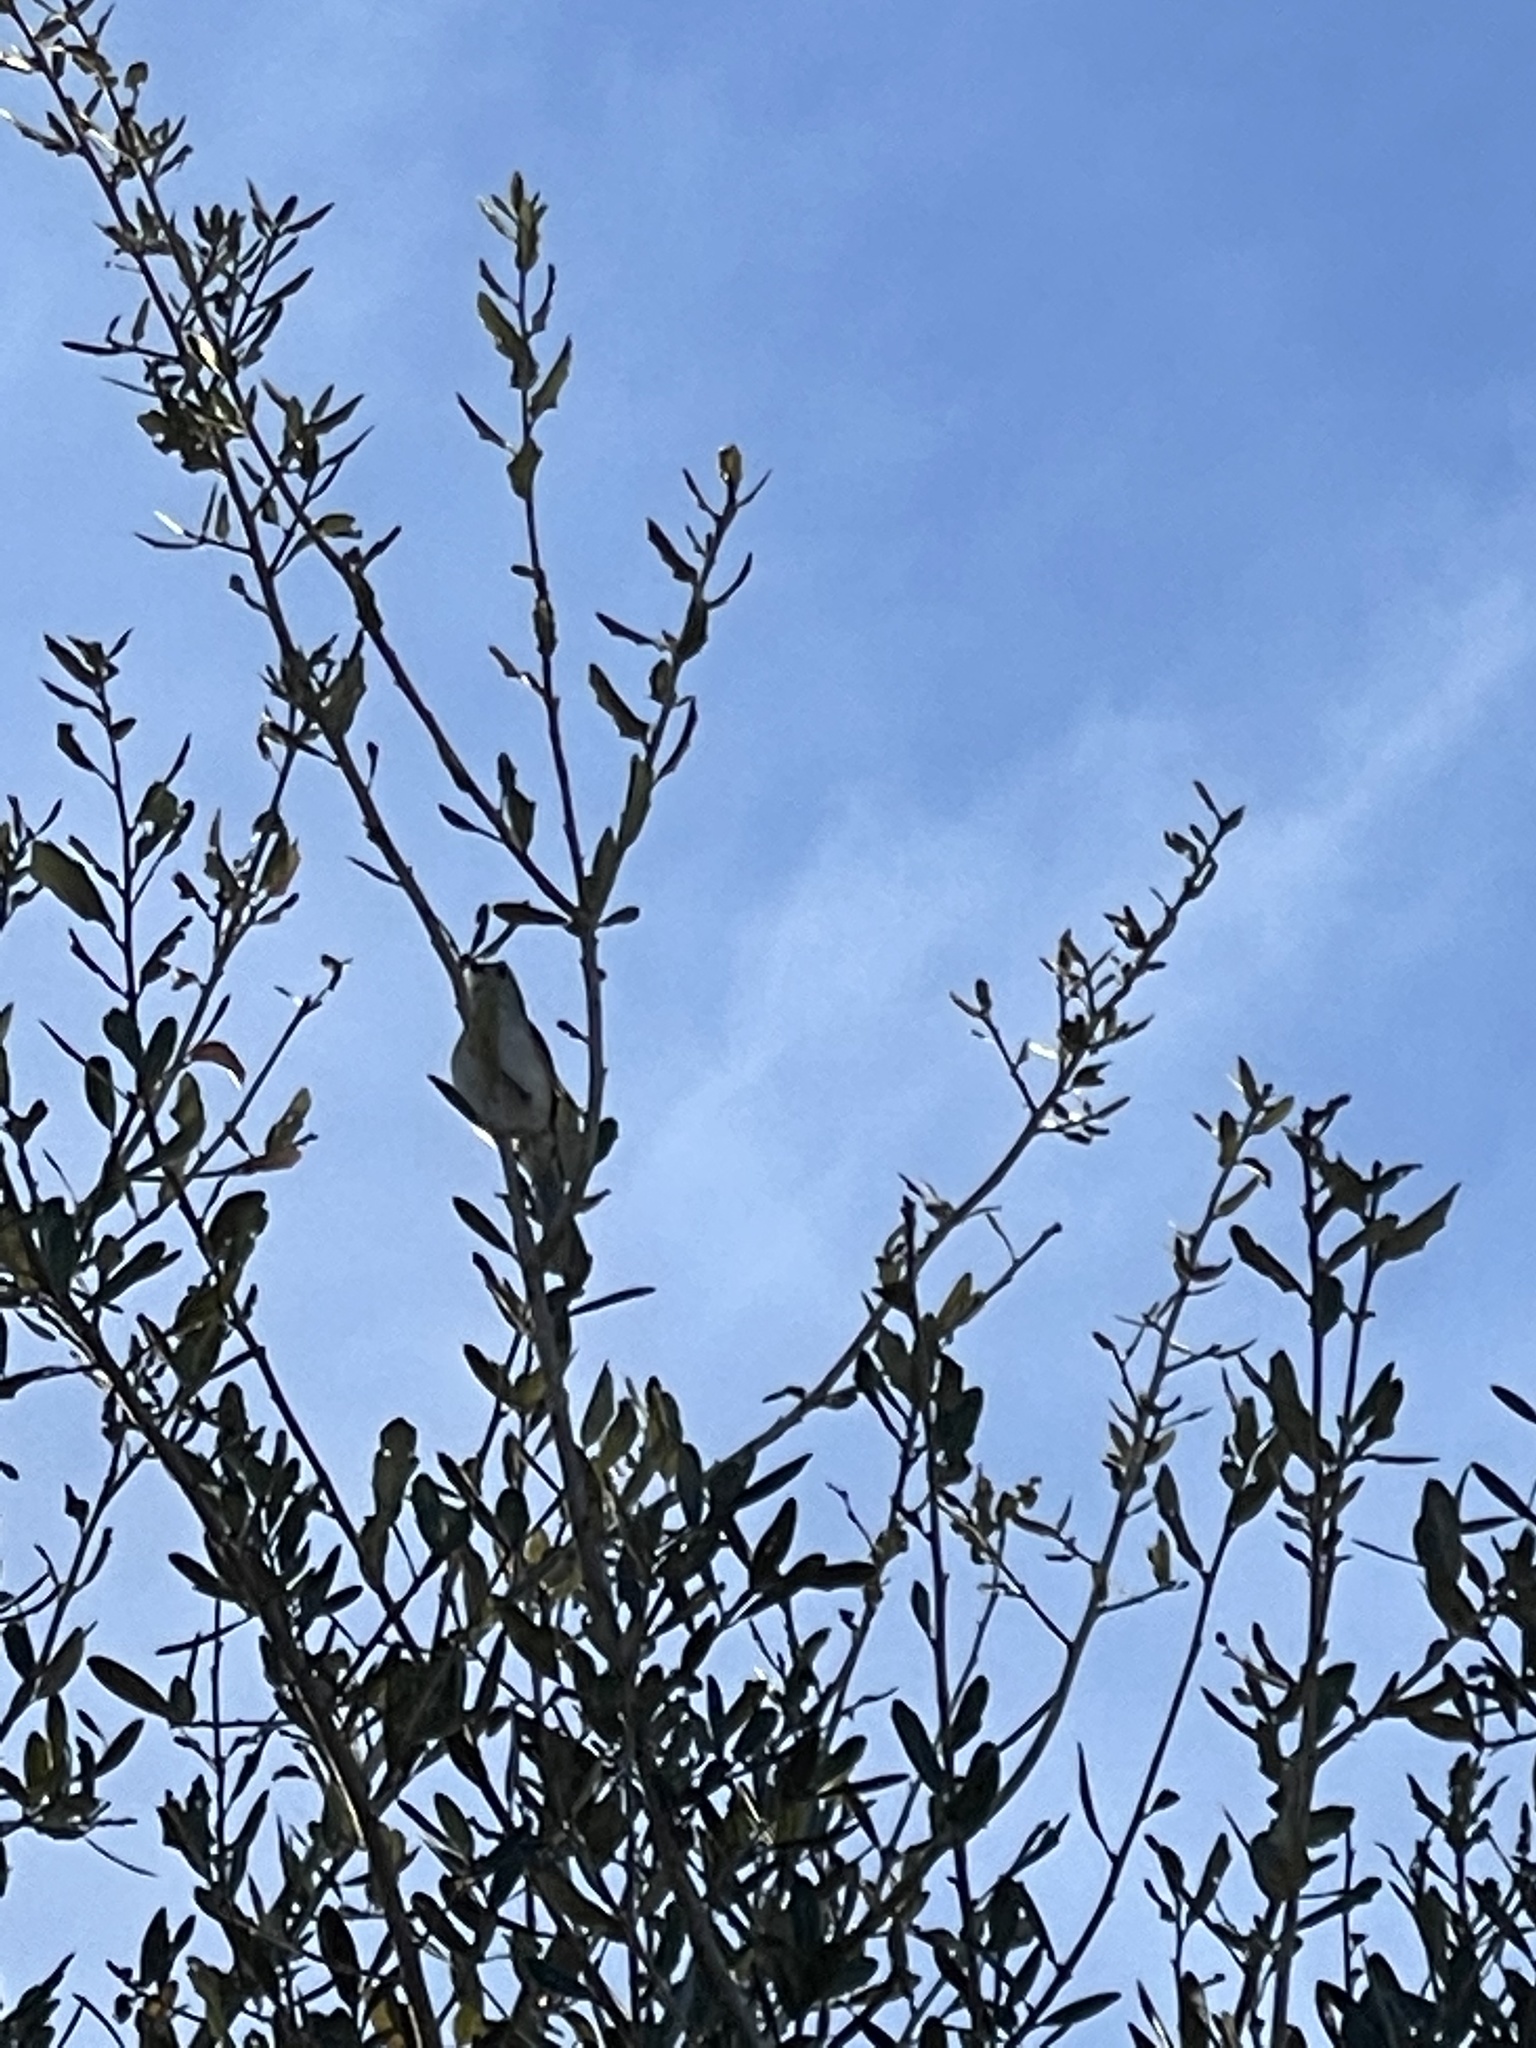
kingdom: Animalia
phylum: Chordata
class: Aves
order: Passeriformes
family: Paridae
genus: Baeolophus
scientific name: Baeolophus bicolor
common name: Tufted titmouse
